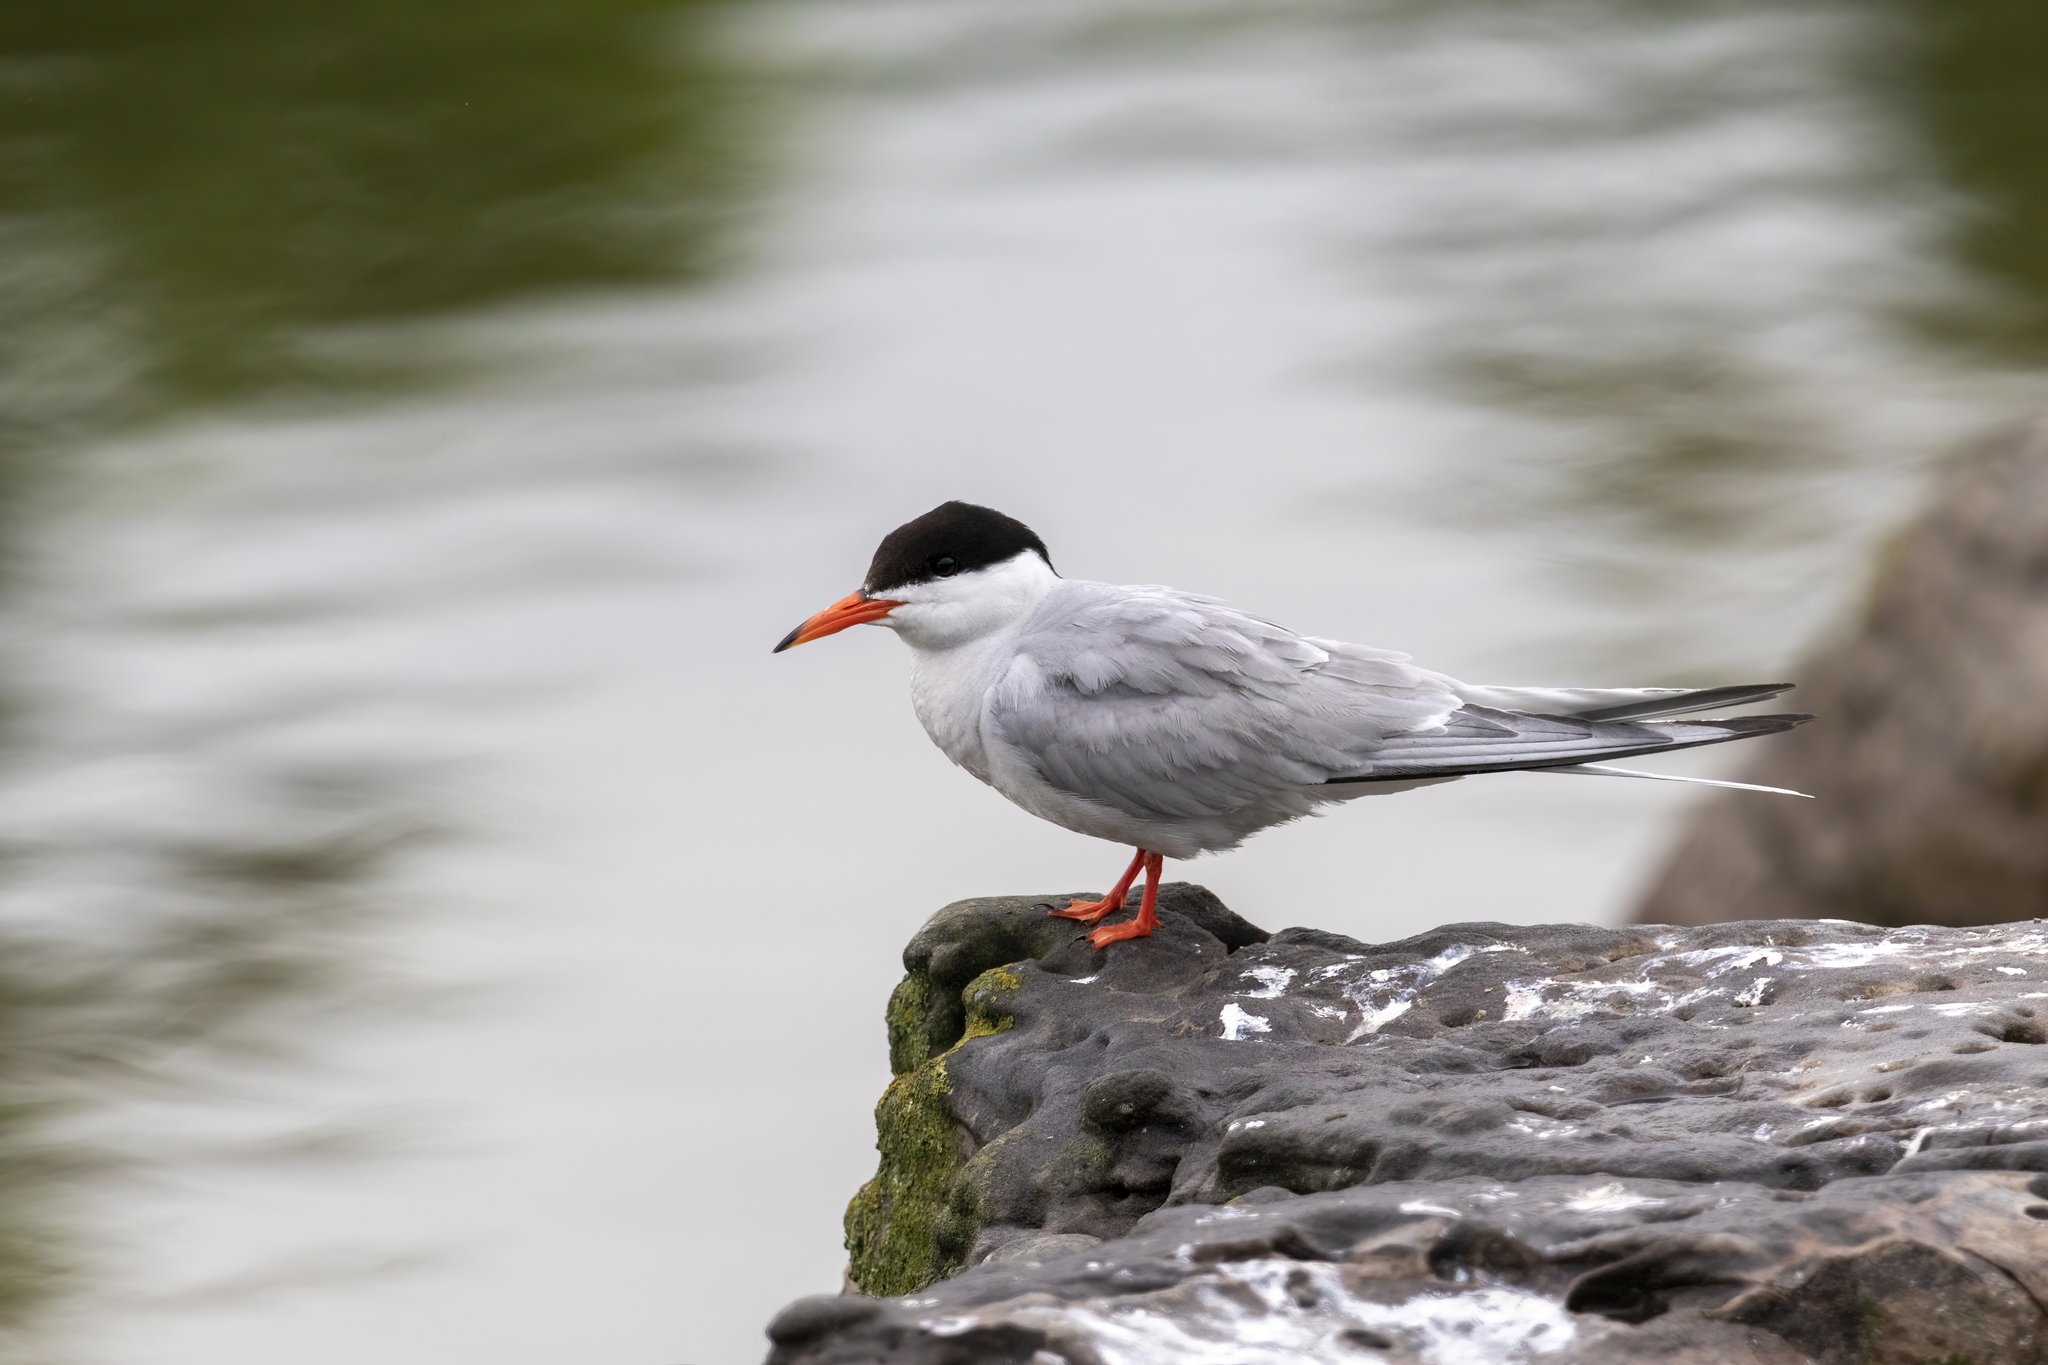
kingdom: Animalia
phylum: Chordata
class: Aves
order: Charadriiformes
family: Laridae
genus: Sterna
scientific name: Sterna hirundo
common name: Common tern
